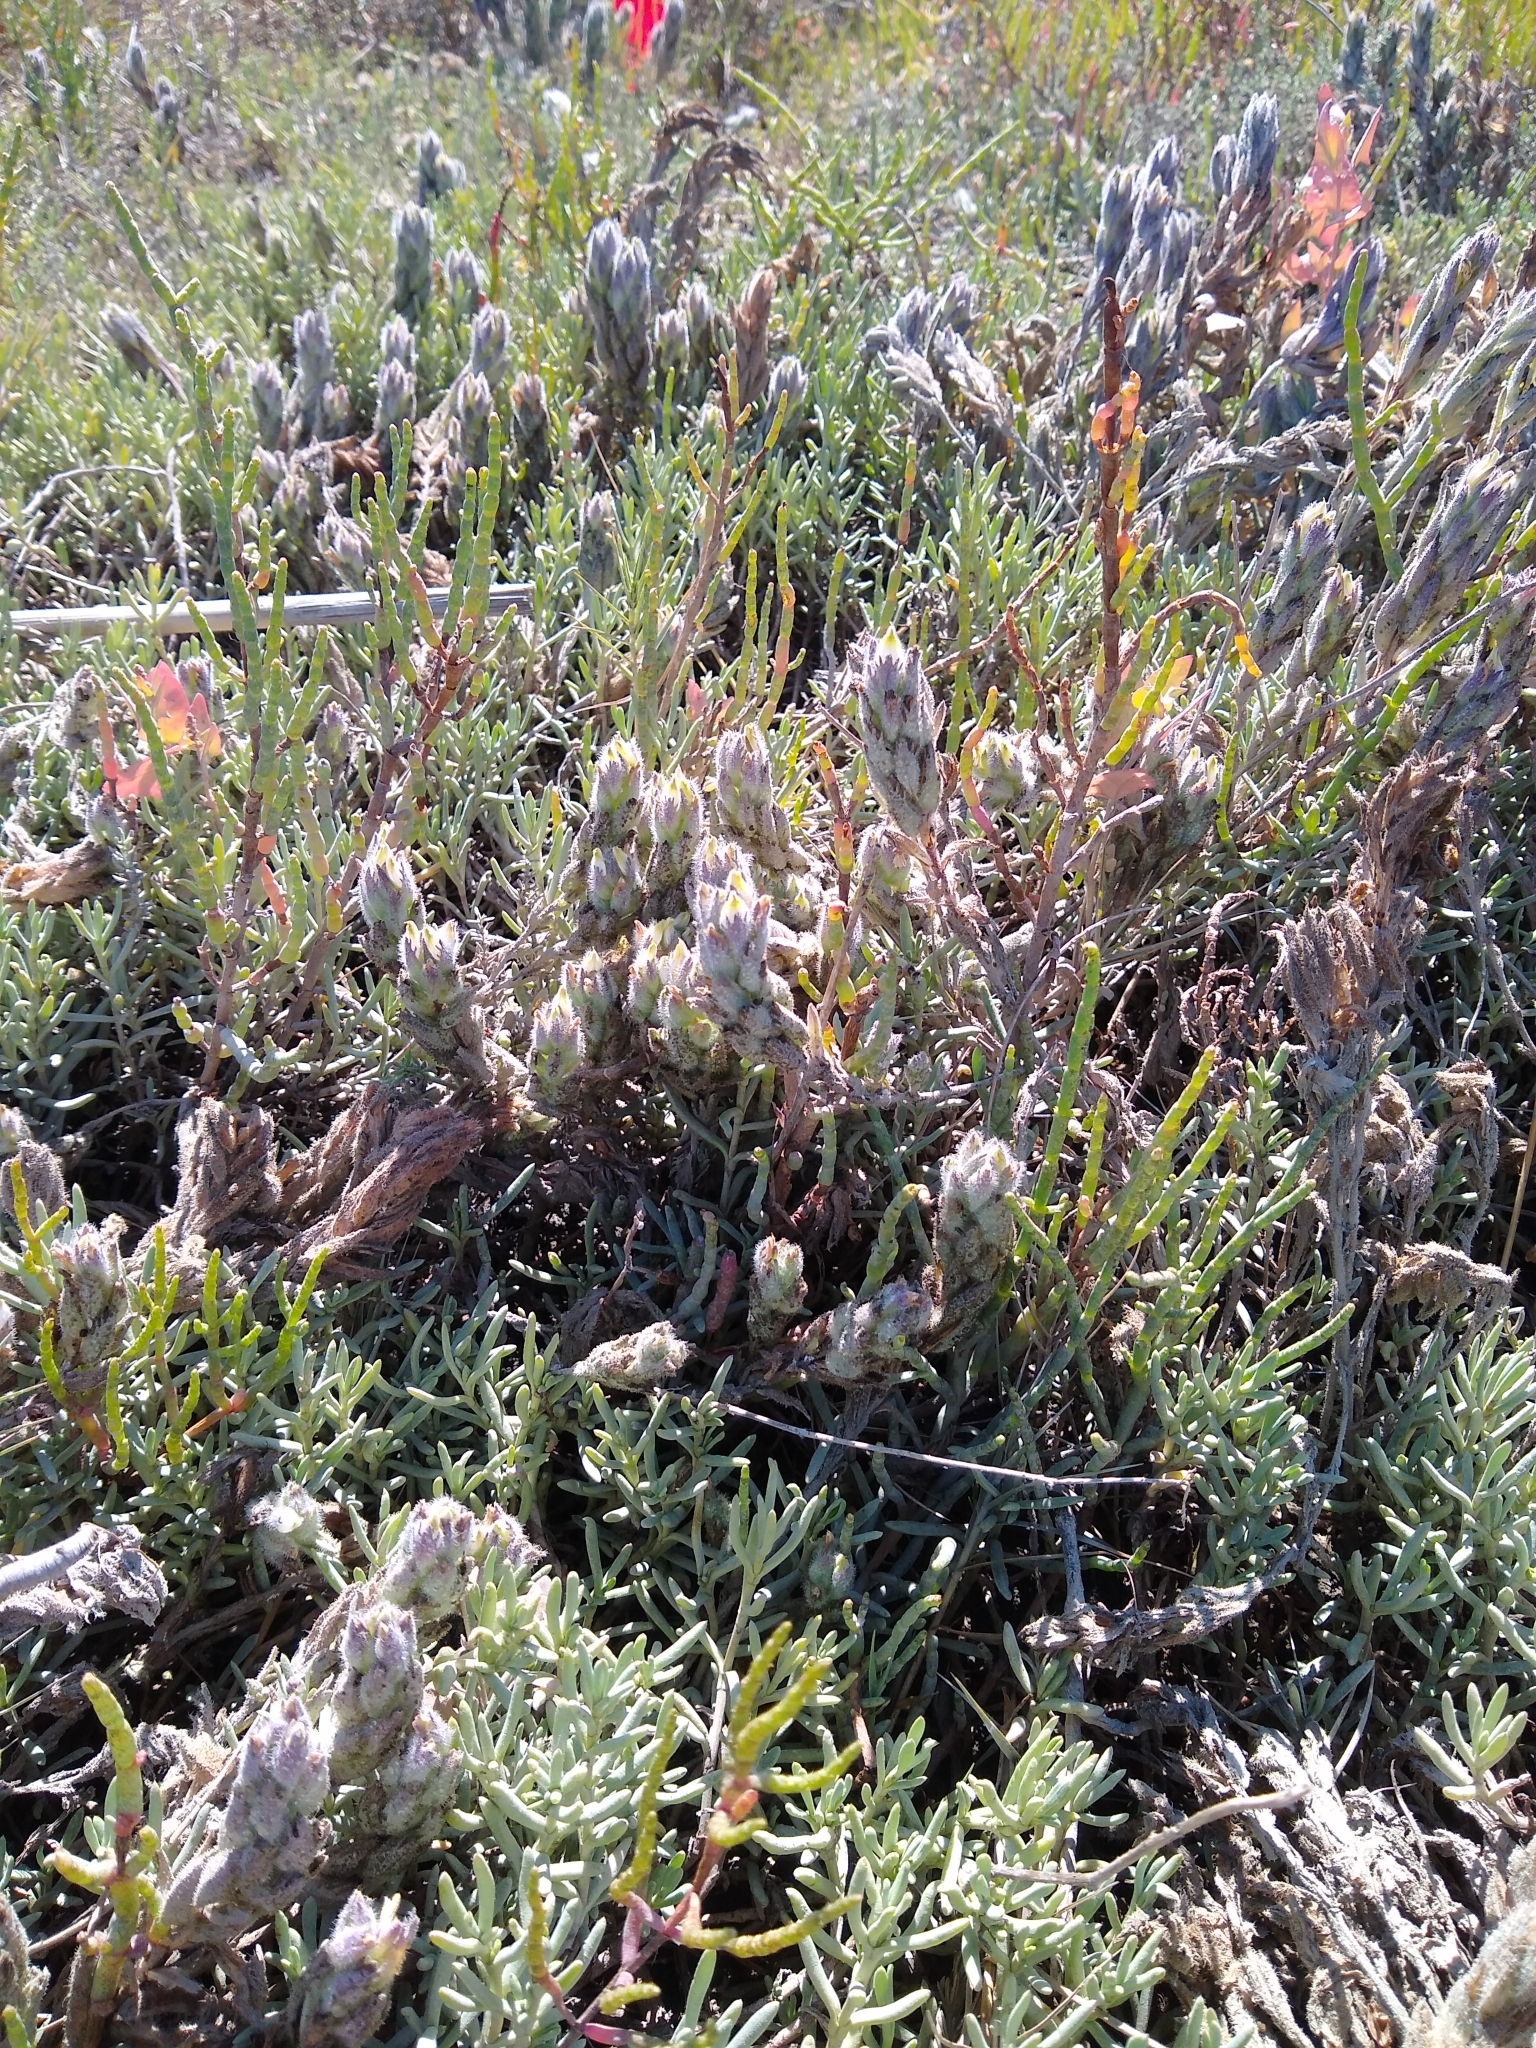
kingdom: Plantae
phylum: Tracheophyta
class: Magnoliopsida
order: Lamiales
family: Orobanchaceae
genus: Chloropyron
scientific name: Chloropyron molle
